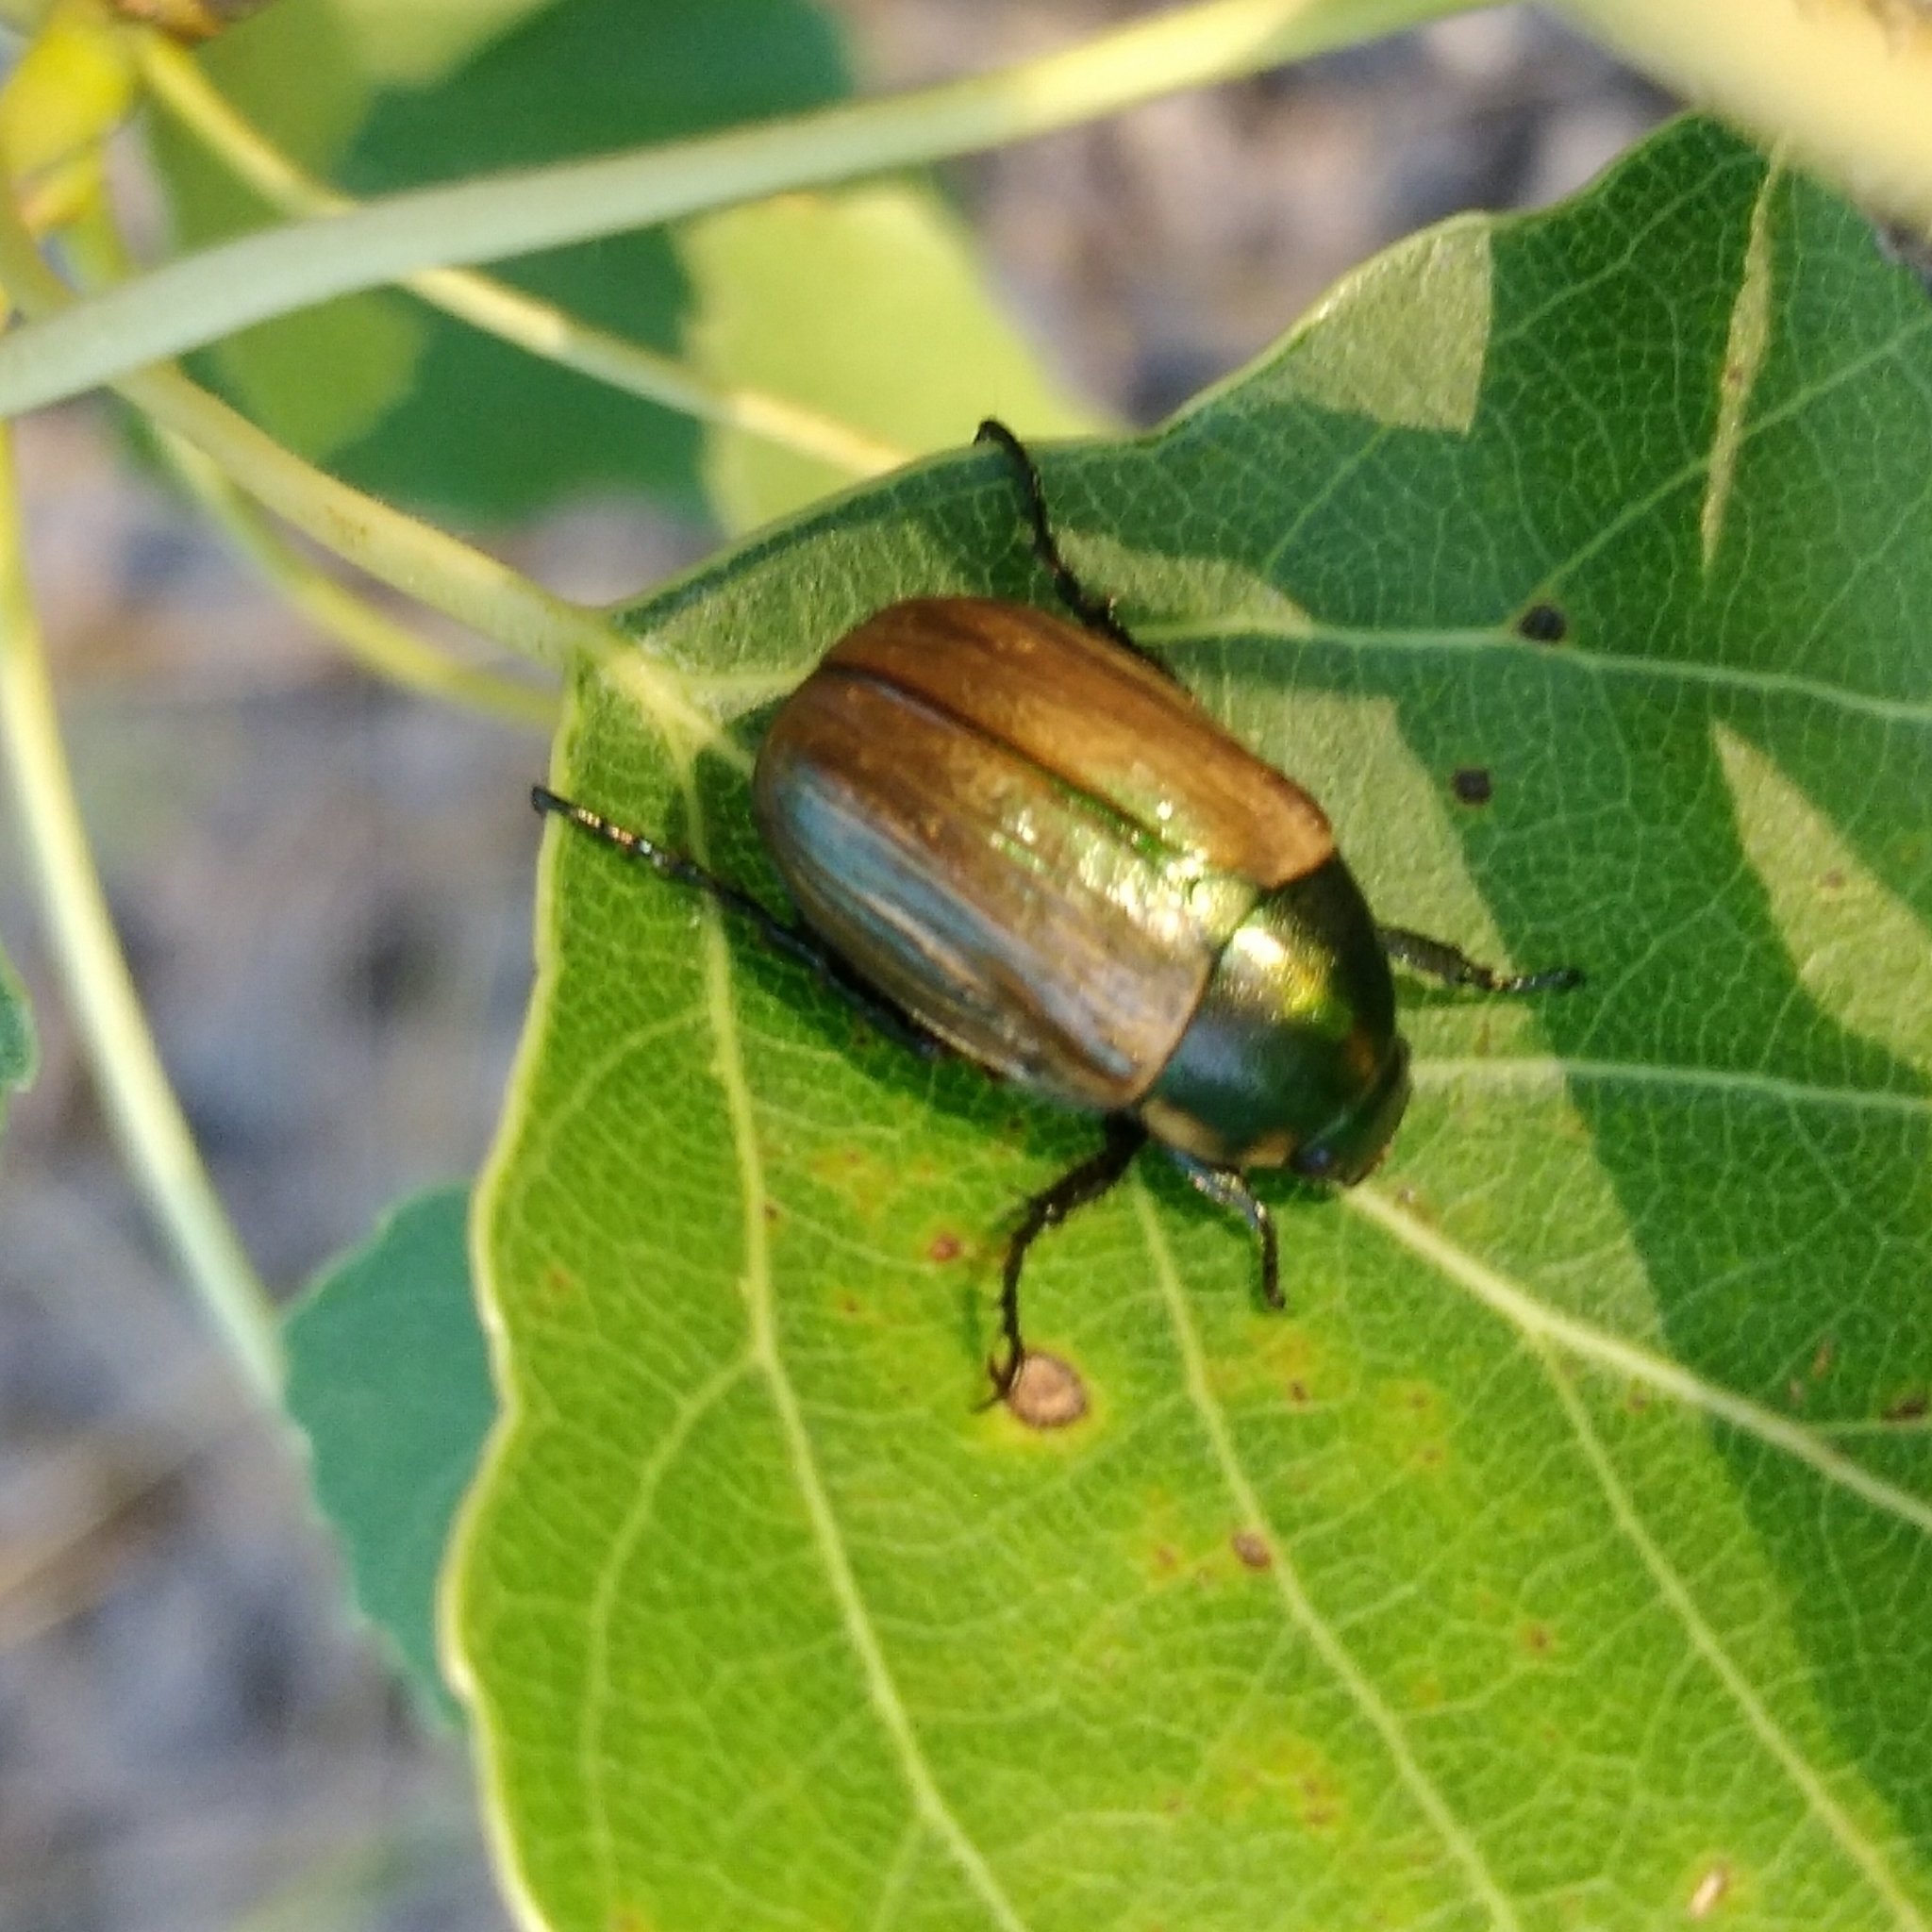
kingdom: Animalia
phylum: Arthropoda
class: Insecta
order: Coleoptera
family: Scarabaeidae
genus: Anomala
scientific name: Anomala dubia
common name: Dune chafer
